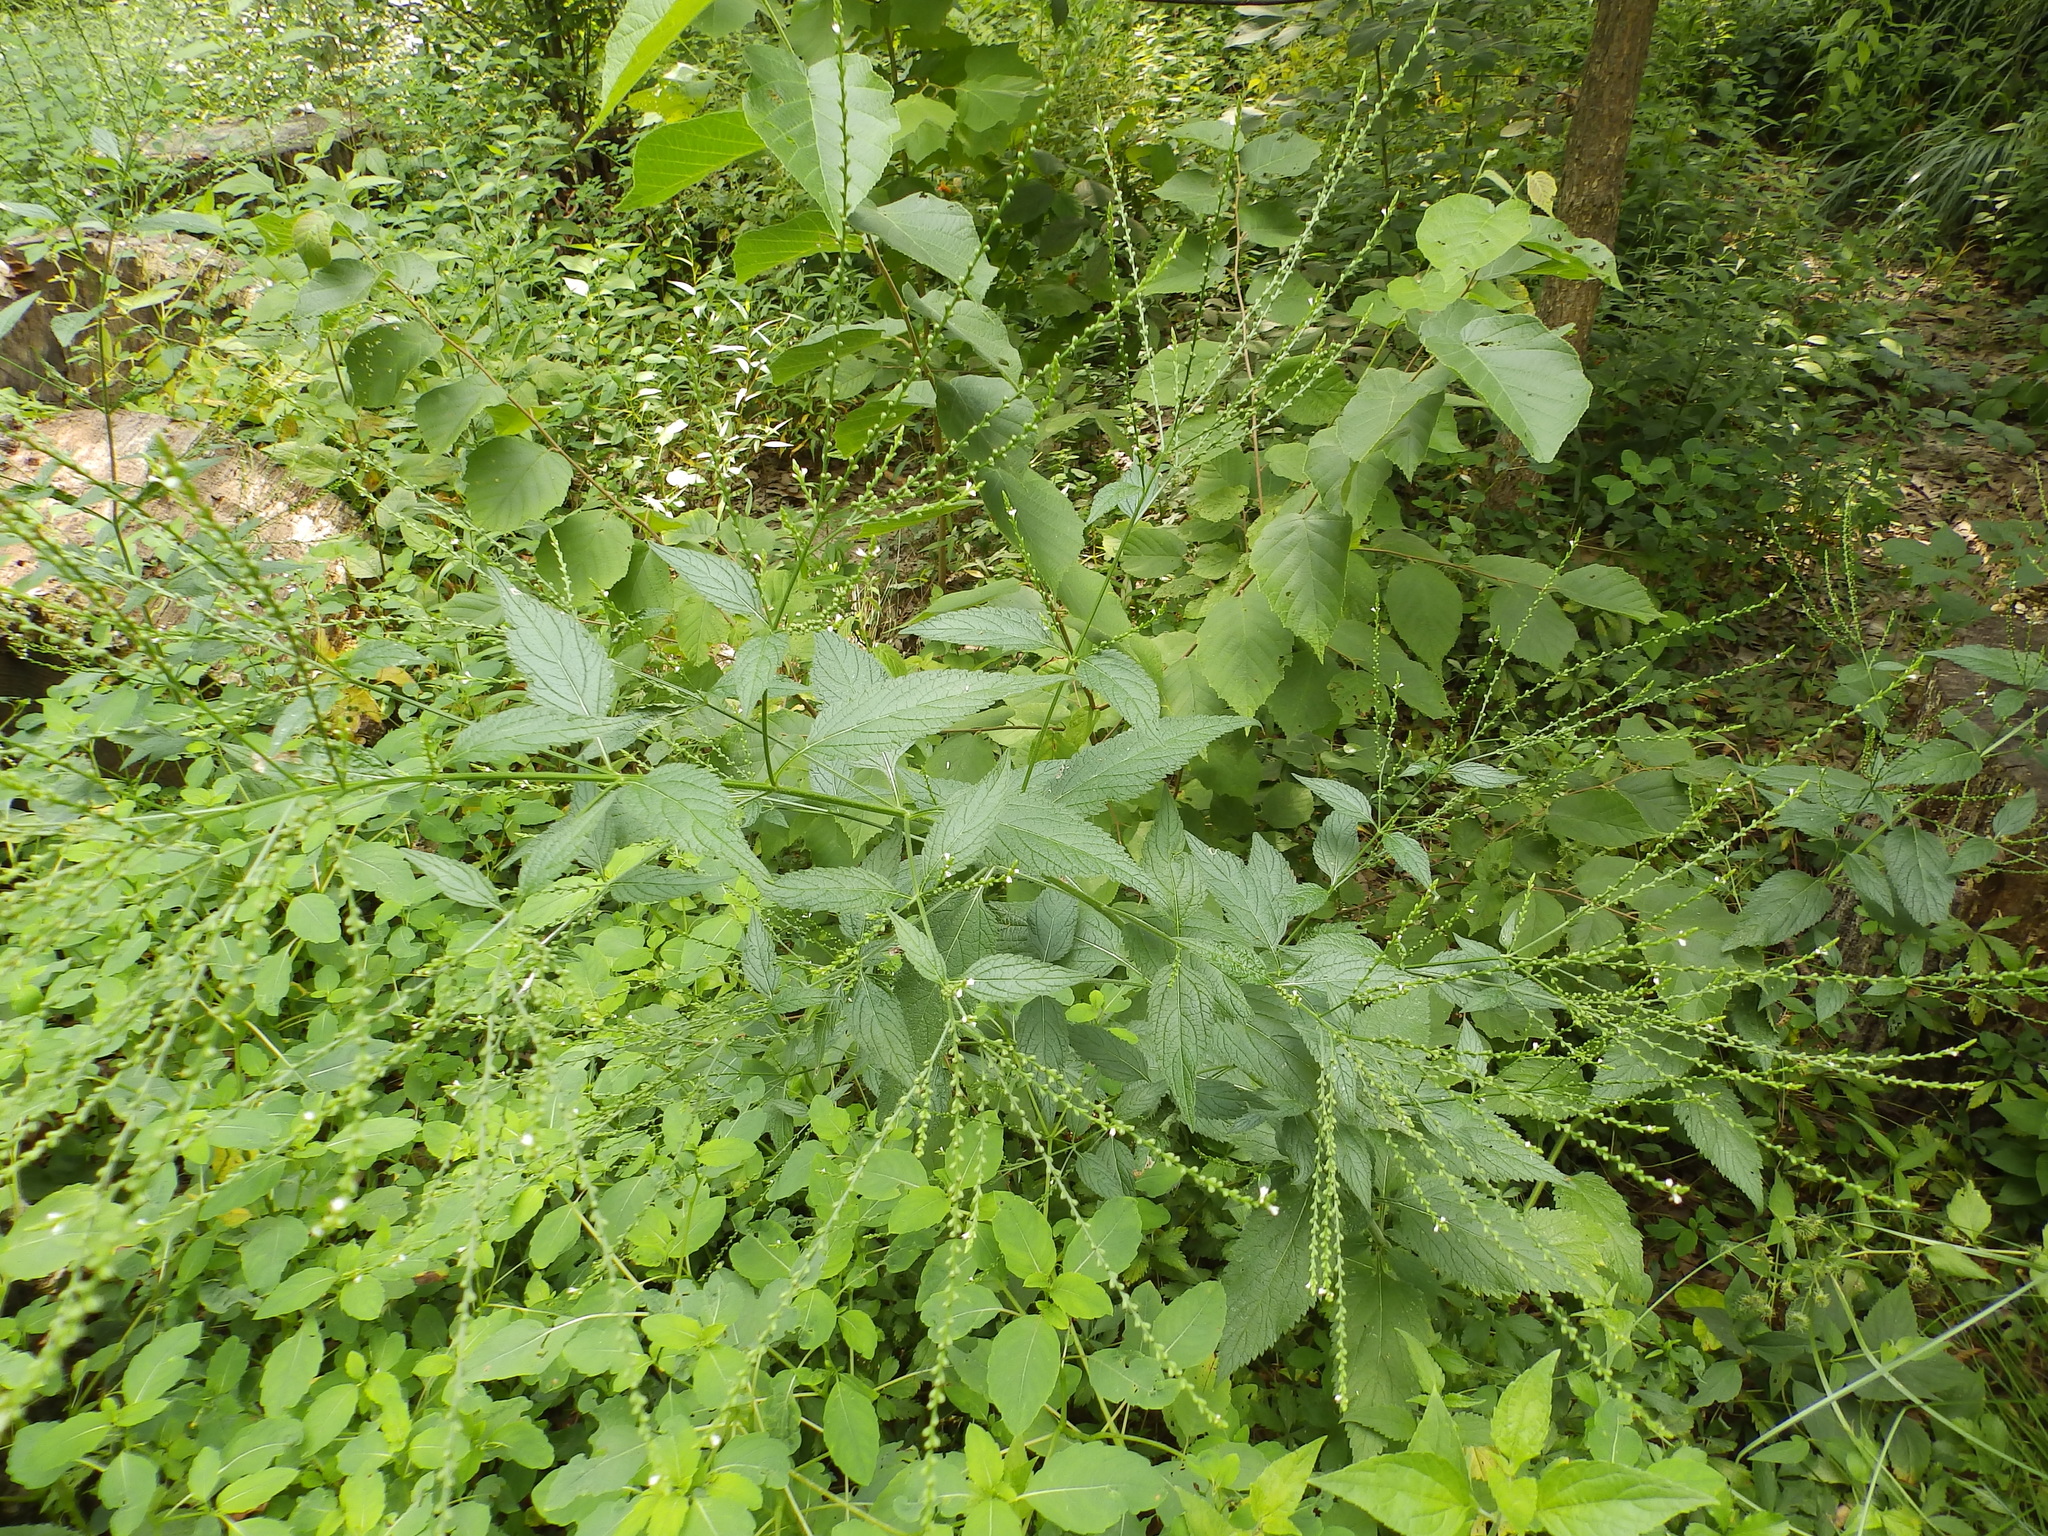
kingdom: Plantae
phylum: Tracheophyta
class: Magnoliopsida
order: Lamiales
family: Verbenaceae
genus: Verbena
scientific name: Verbena urticifolia
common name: Nettle-leaved vervain
